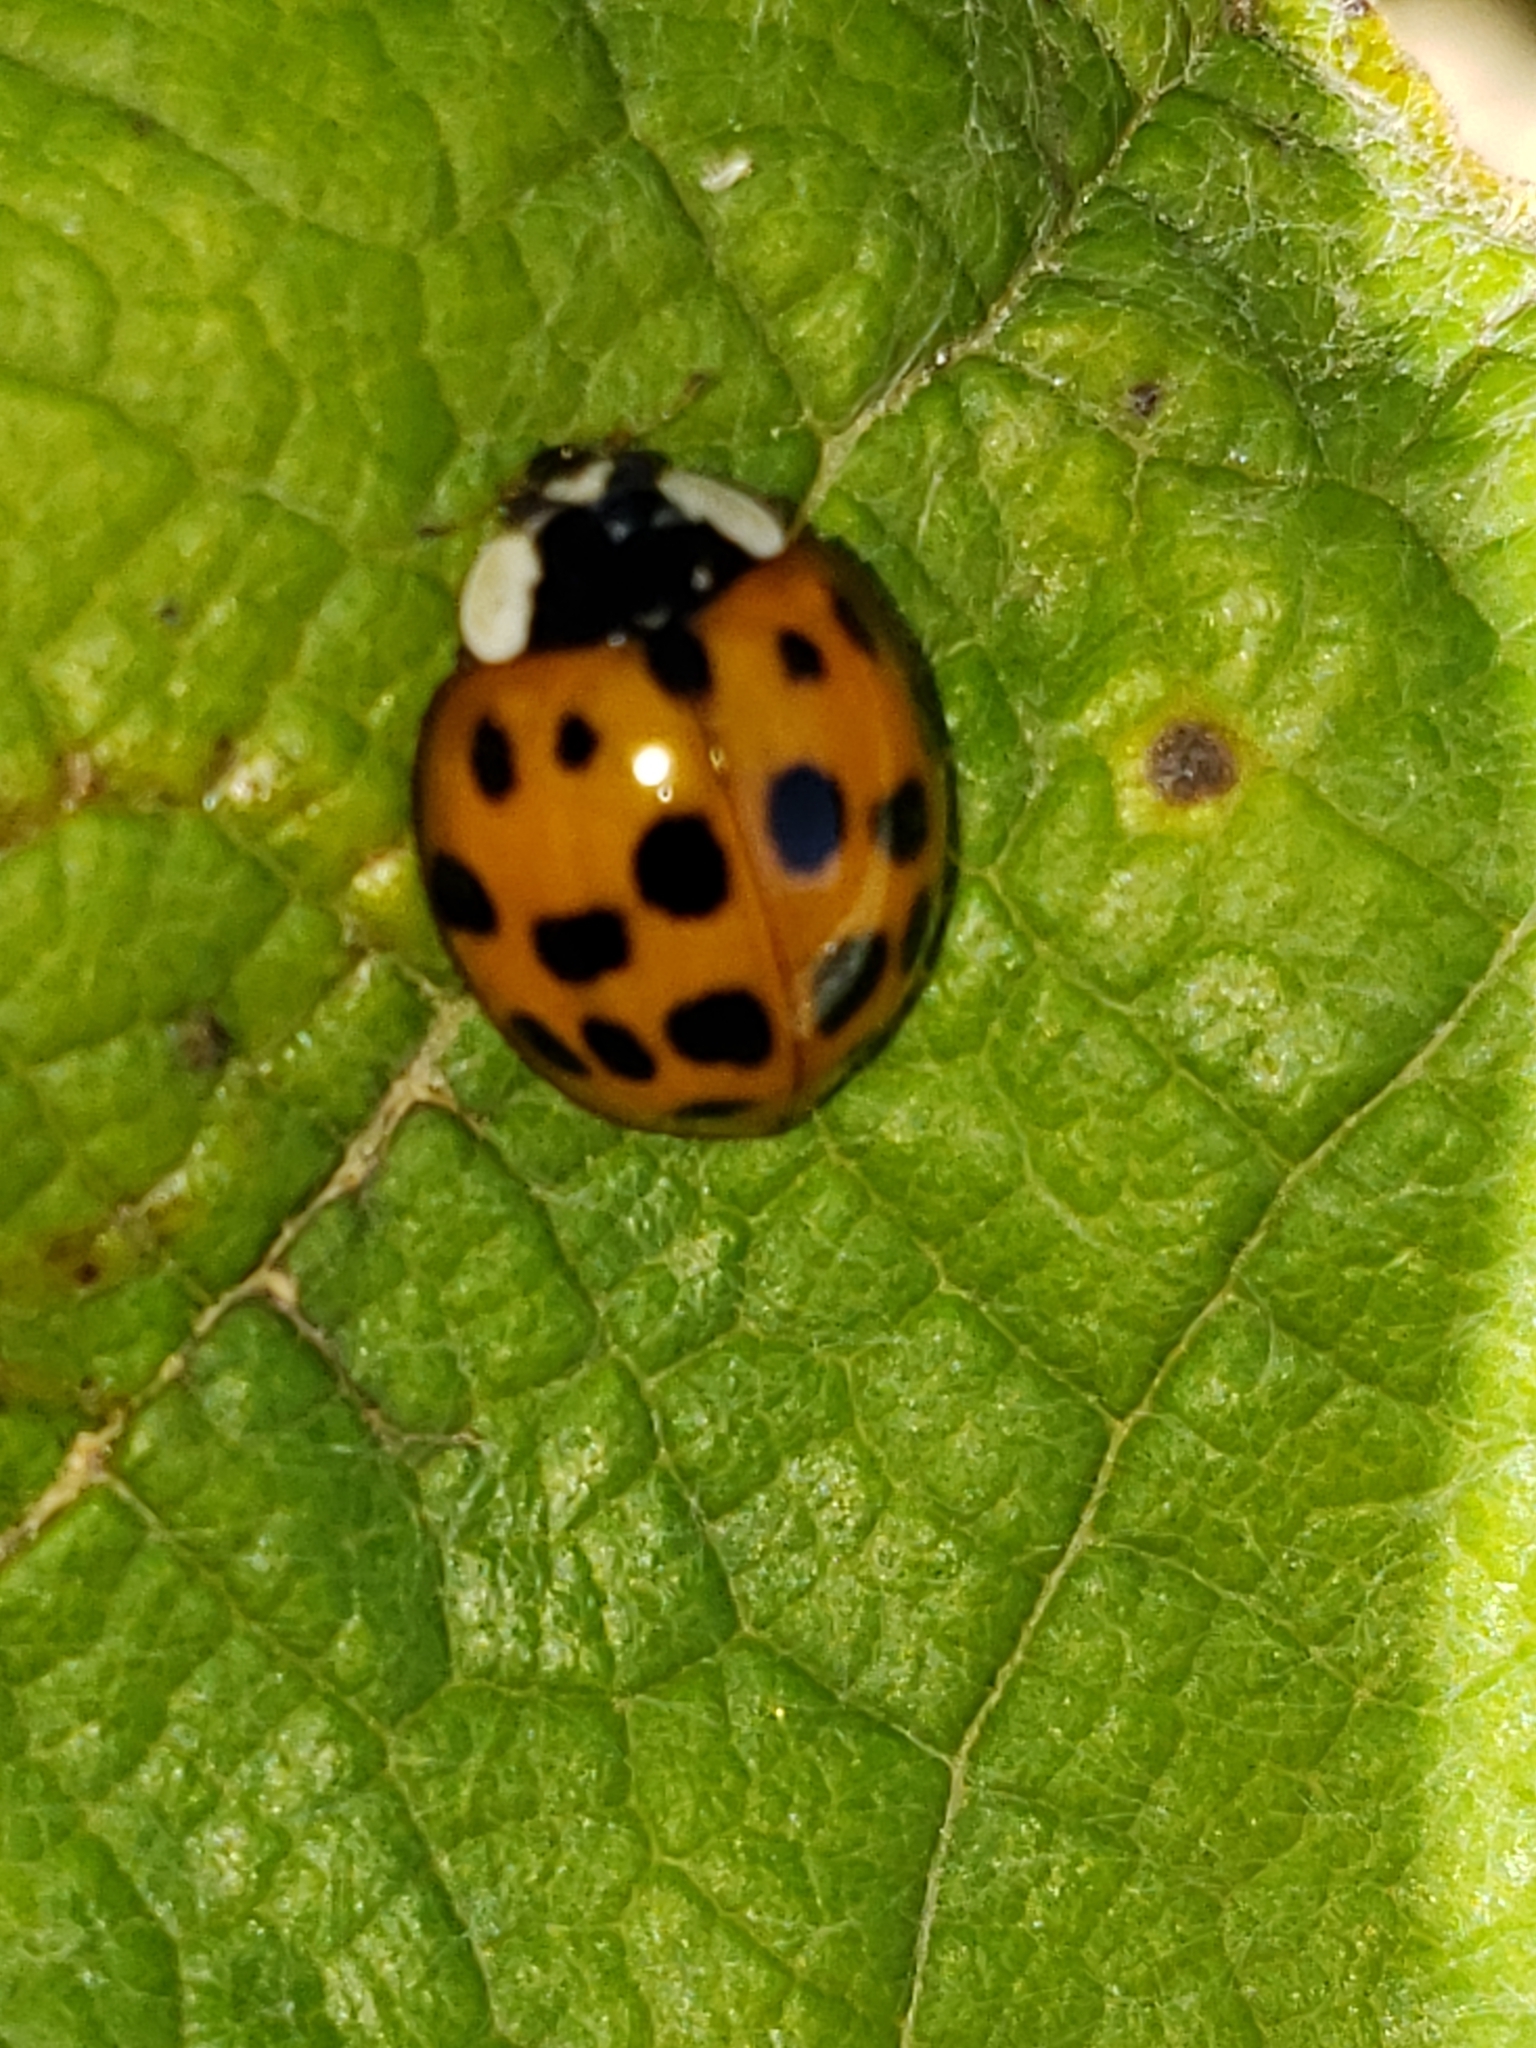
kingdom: Animalia
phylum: Arthropoda
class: Insecta
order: Coleoptera
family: Coccinellidae
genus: Harmonia
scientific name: Harmonia axyridis
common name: Harlequin ladybird
